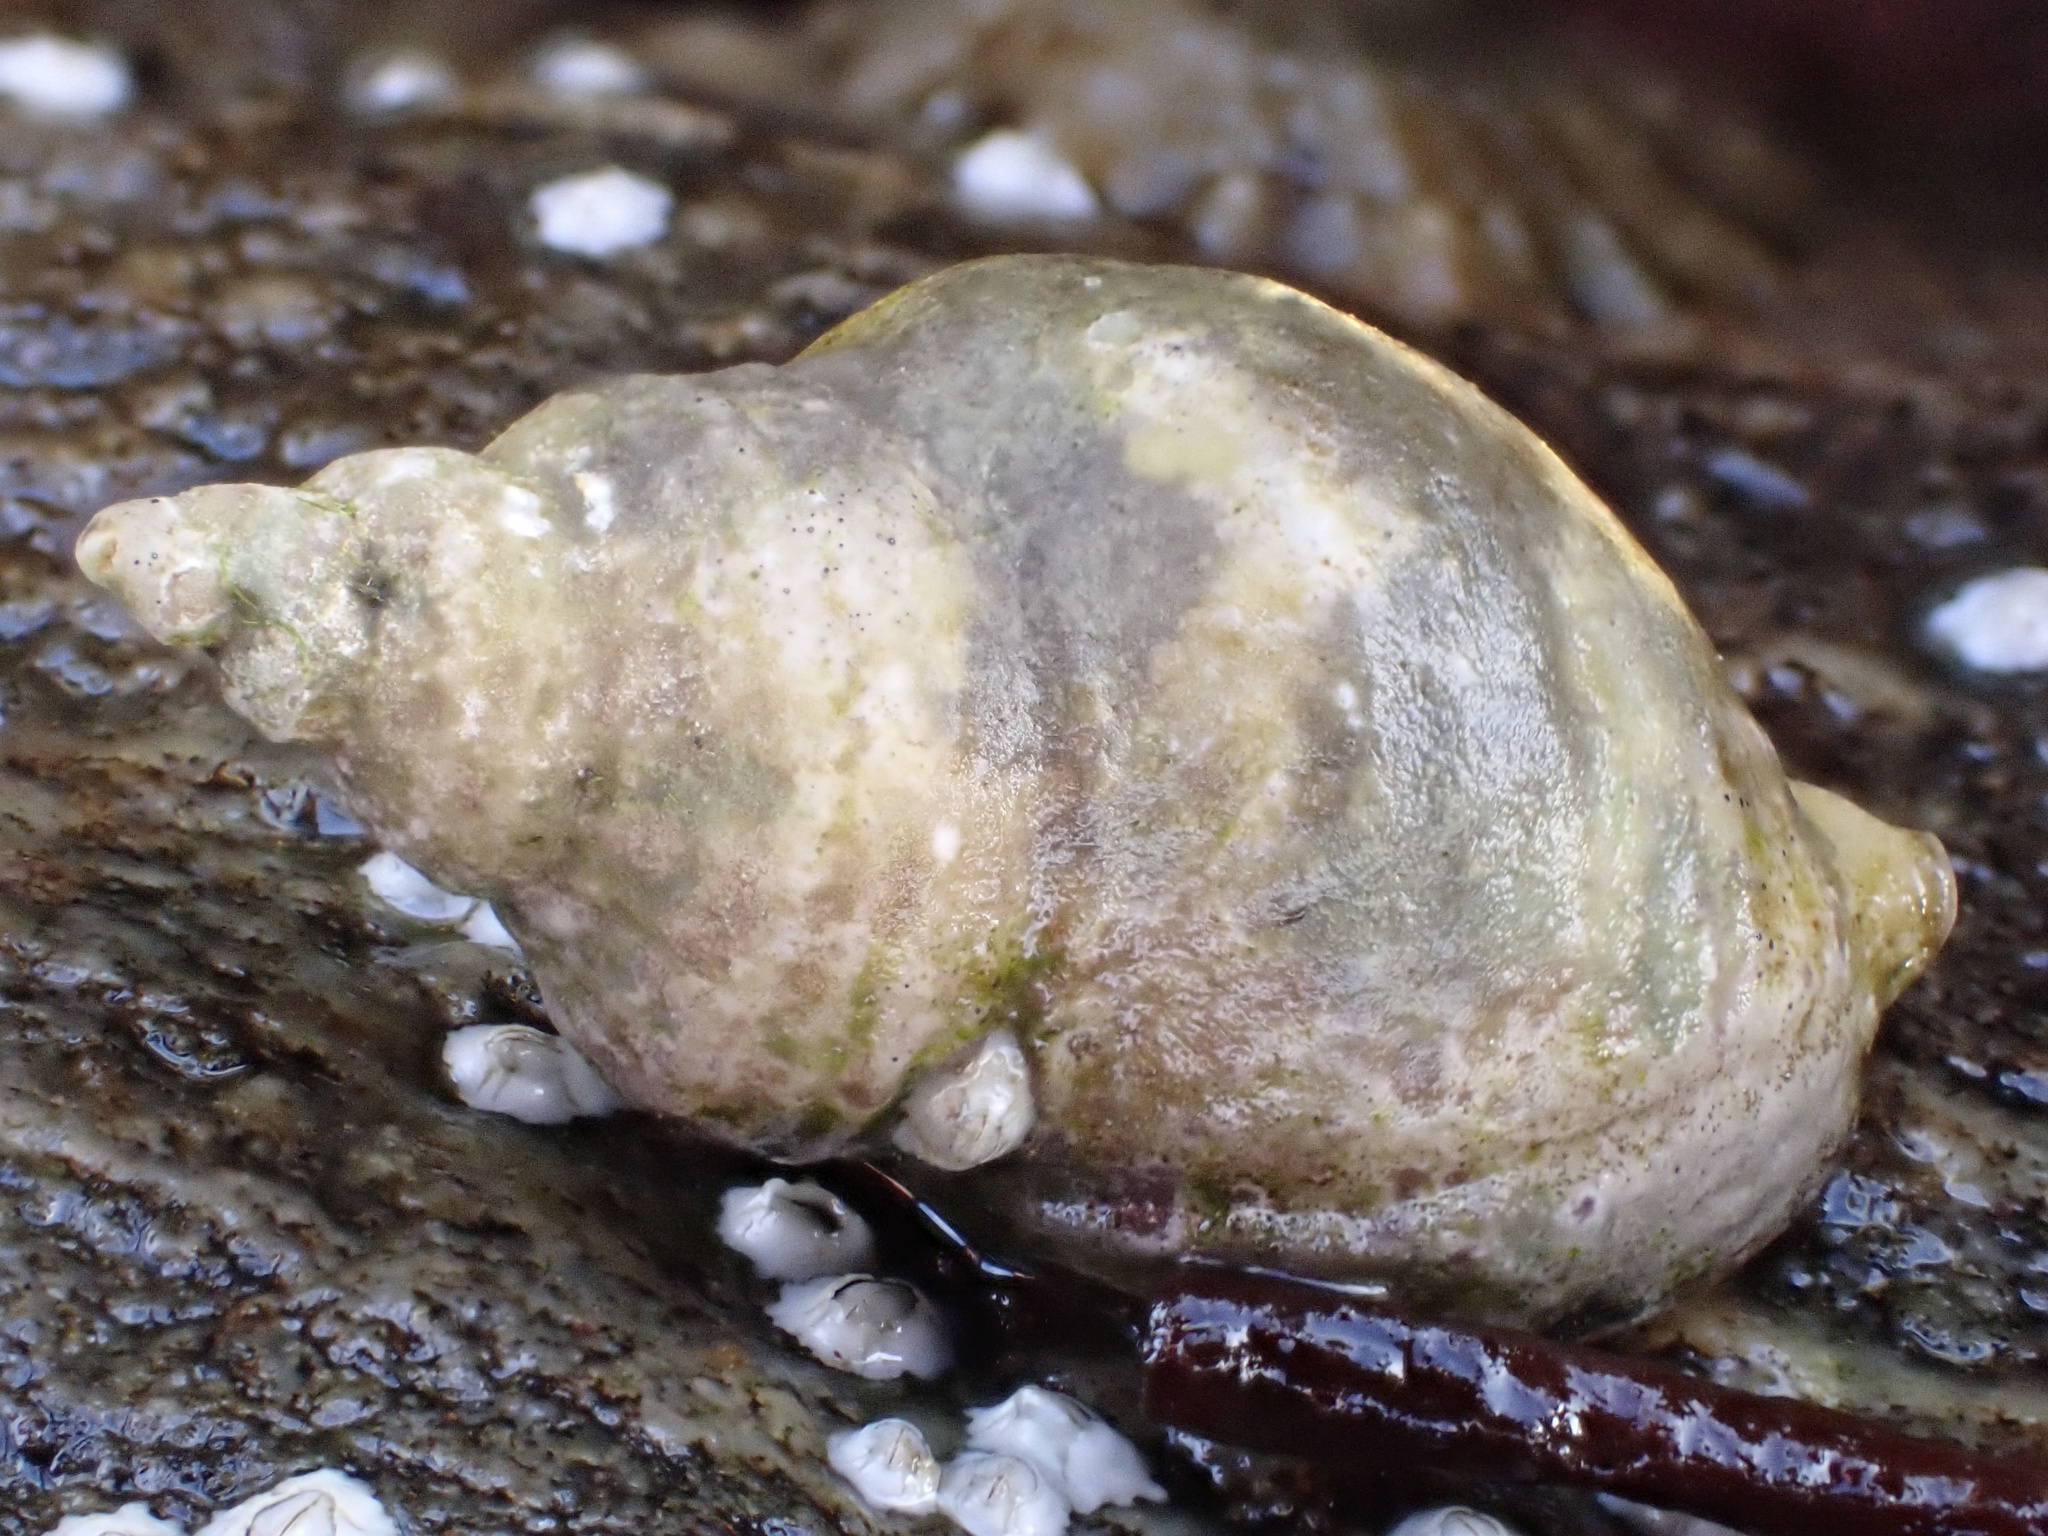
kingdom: Animalia
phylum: Mollusca
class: Gastropoda
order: Neogastropoda
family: Muricidae
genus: Nucella
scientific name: Nucella lapillus
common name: Dog whelk
